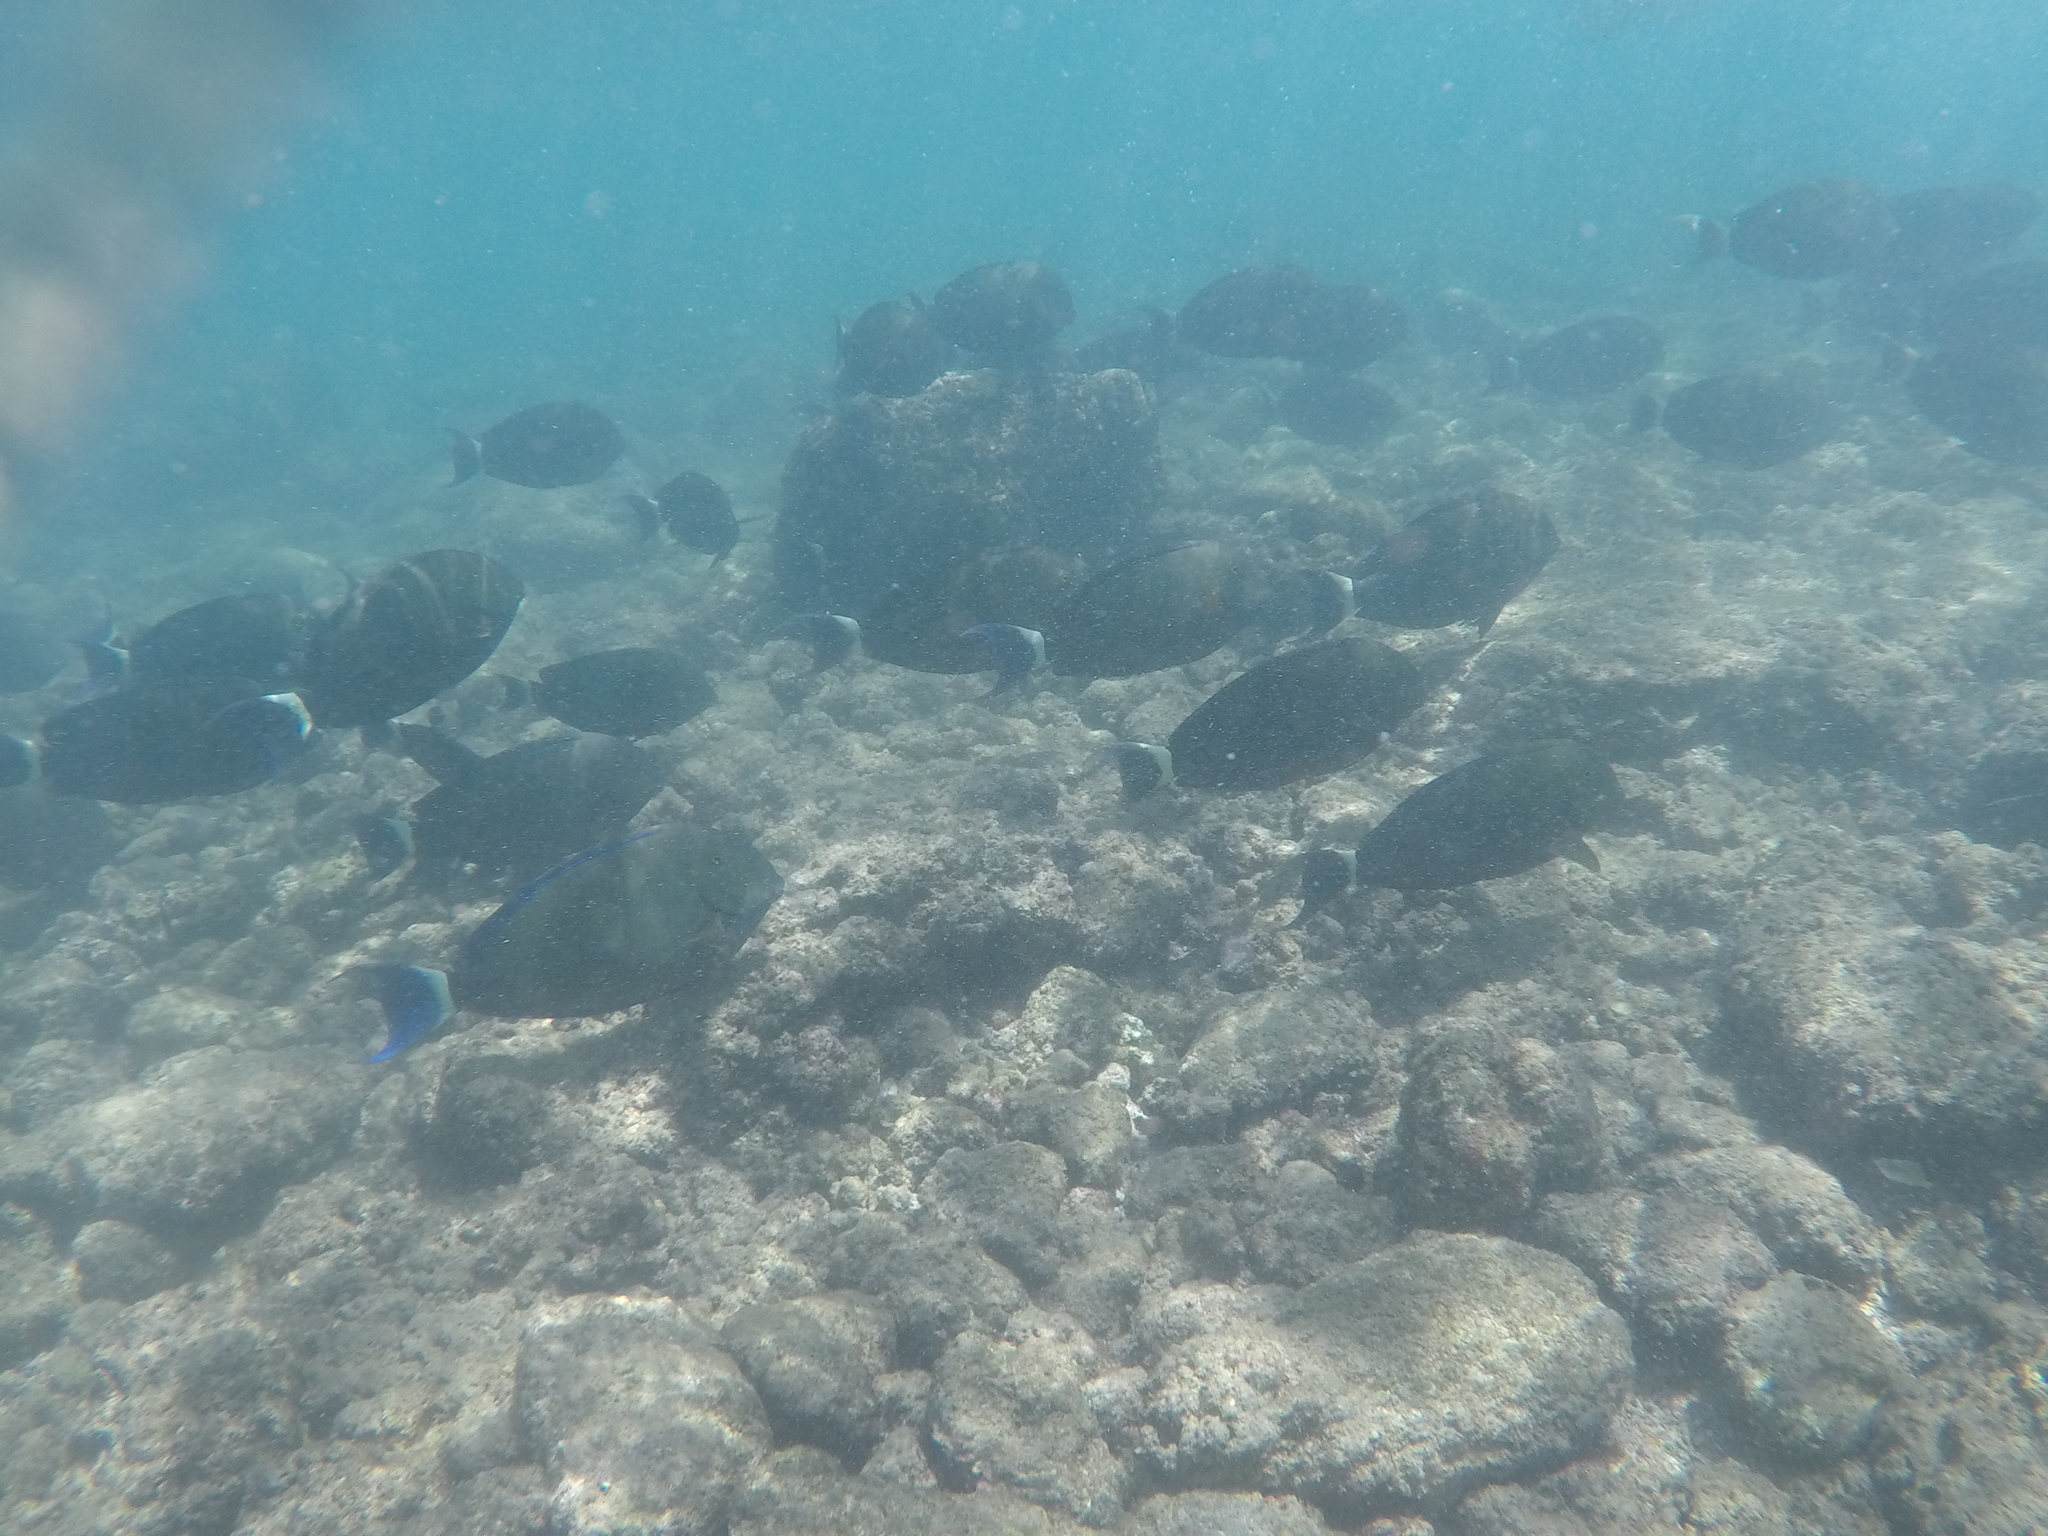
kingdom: Animalia
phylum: Chordata
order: Perciformes
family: Acanthuridae
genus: Acanthurus
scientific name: Acanthurus blochii
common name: Blue-banded pualu
